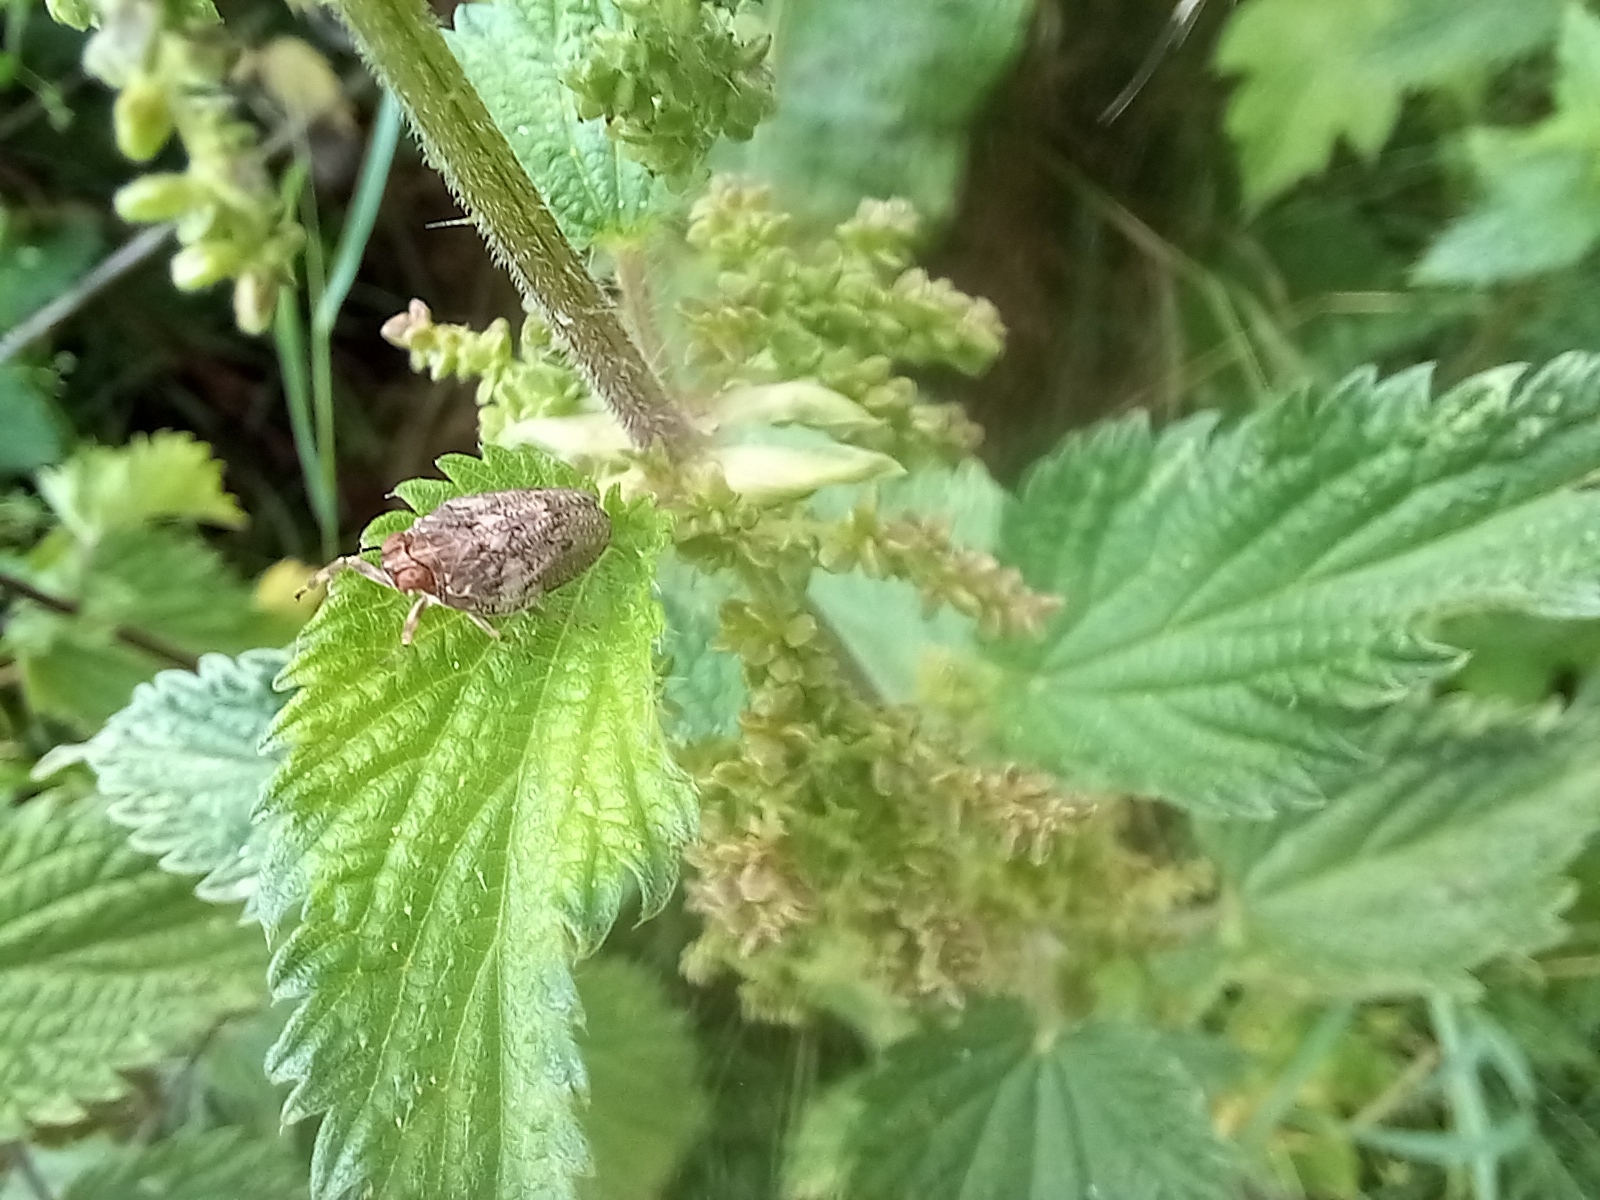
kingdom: Animalia
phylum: Arthropoda
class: Insecta
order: Hemiptera
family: Issidae
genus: Issus
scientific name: Issus coleoptratus
